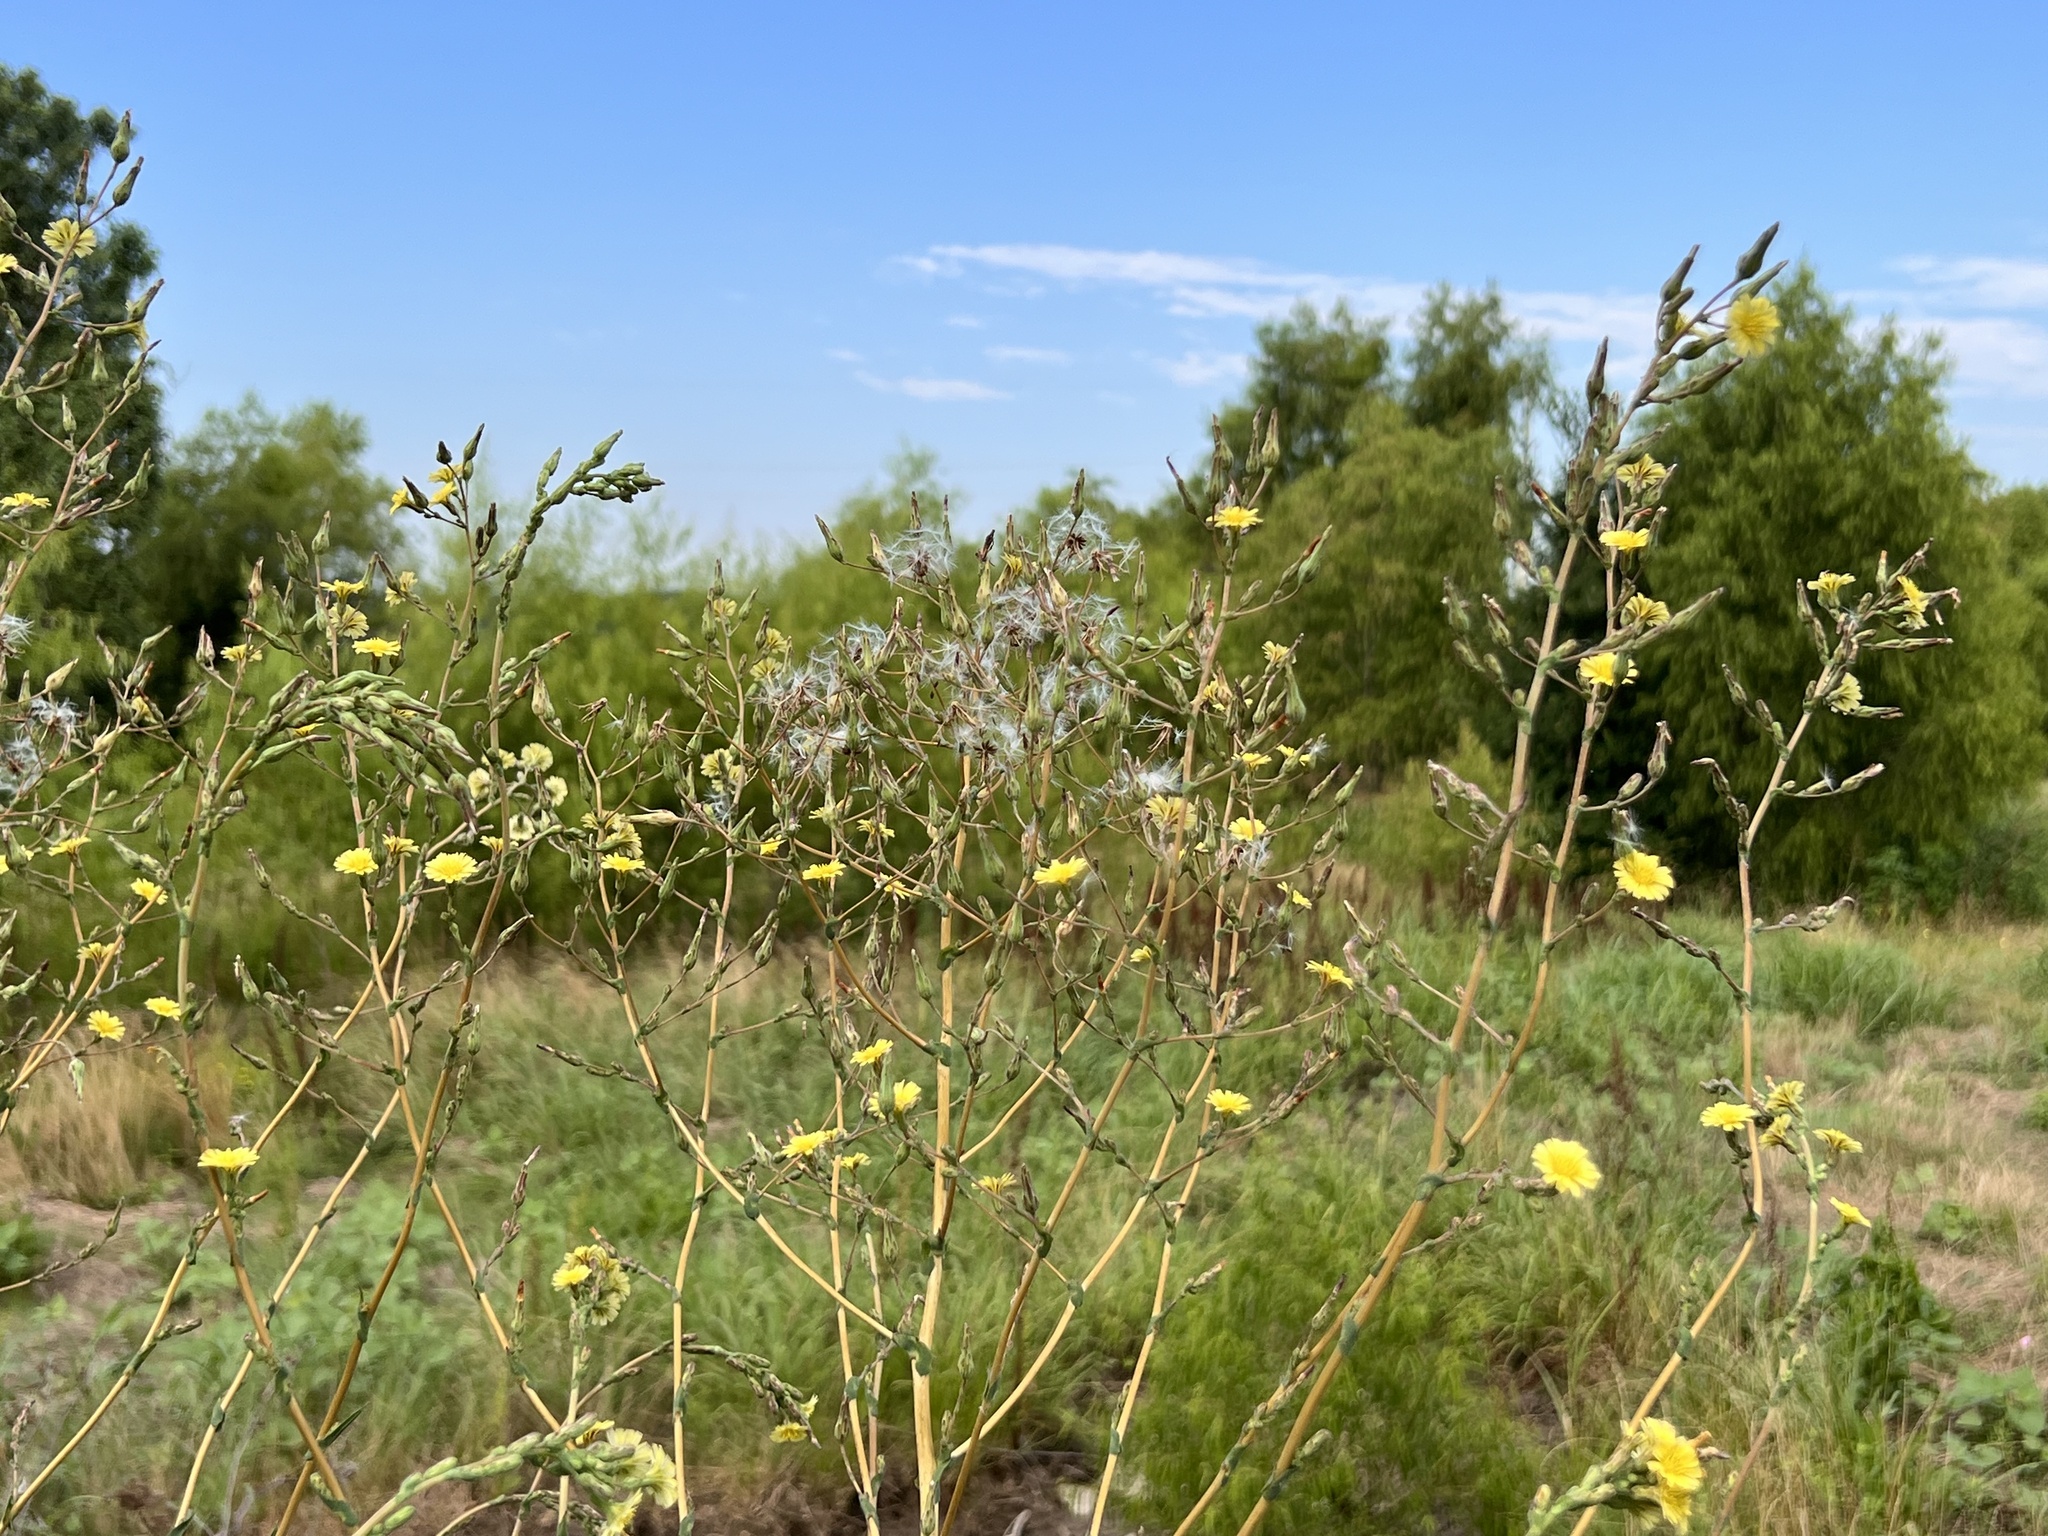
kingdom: Plantae
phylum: Tracheophyta
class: Magnoliopsida
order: Asterales
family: Asteraceae
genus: Lactuca
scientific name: Lactuca serriola
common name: Prickly lettuce
